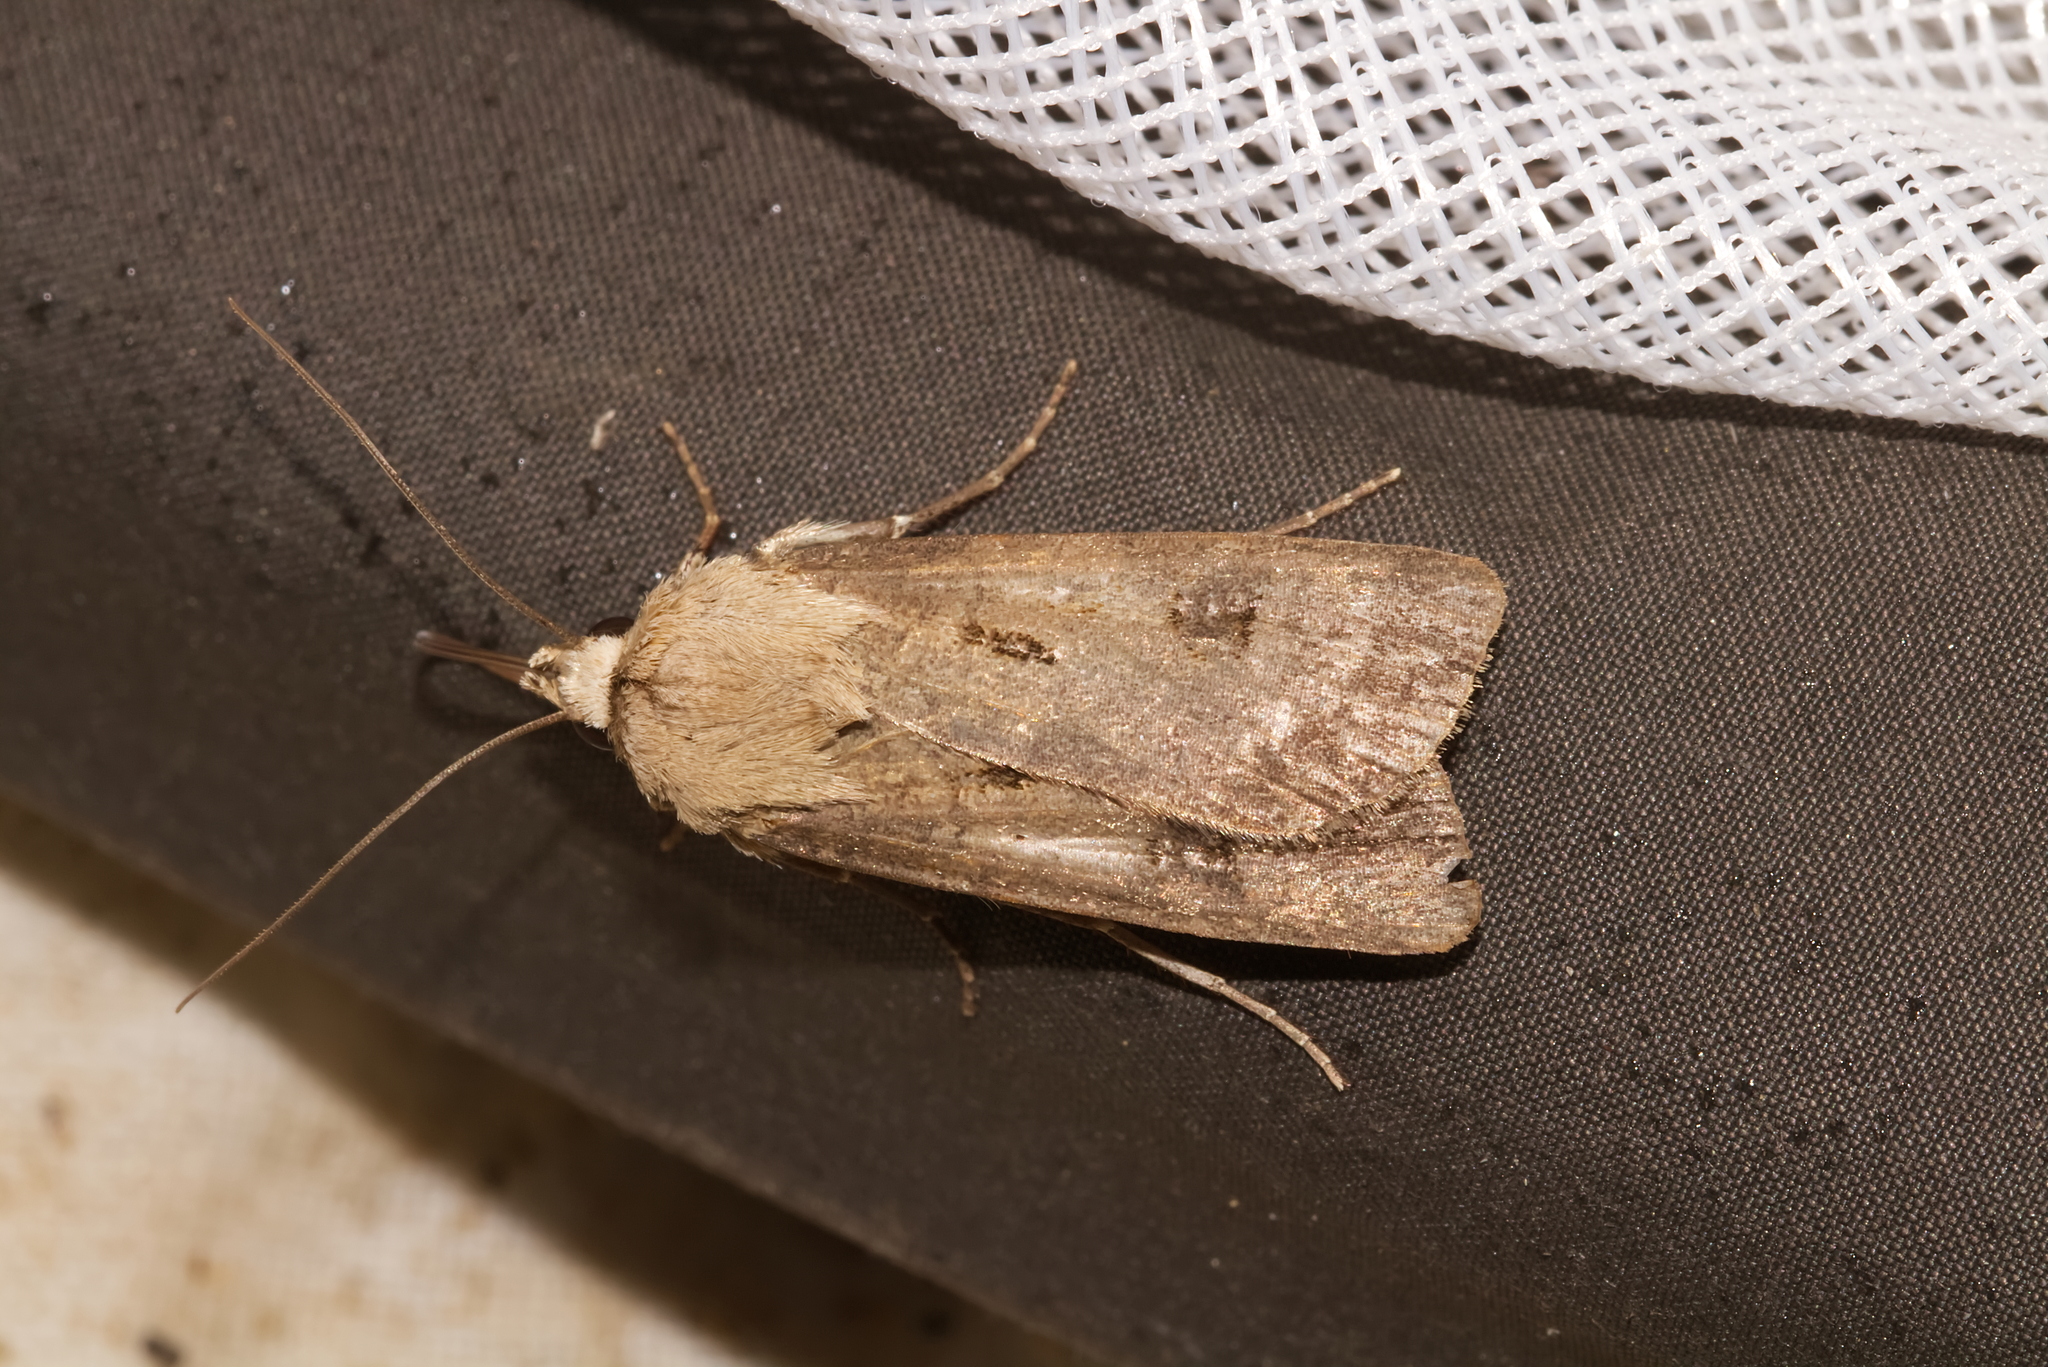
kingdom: Animalia
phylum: Arthropoda
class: Insecta
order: Lepidoptera
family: Noctuidae
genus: Agrotis
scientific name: Agrotis exclamationis
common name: Heart and dart
